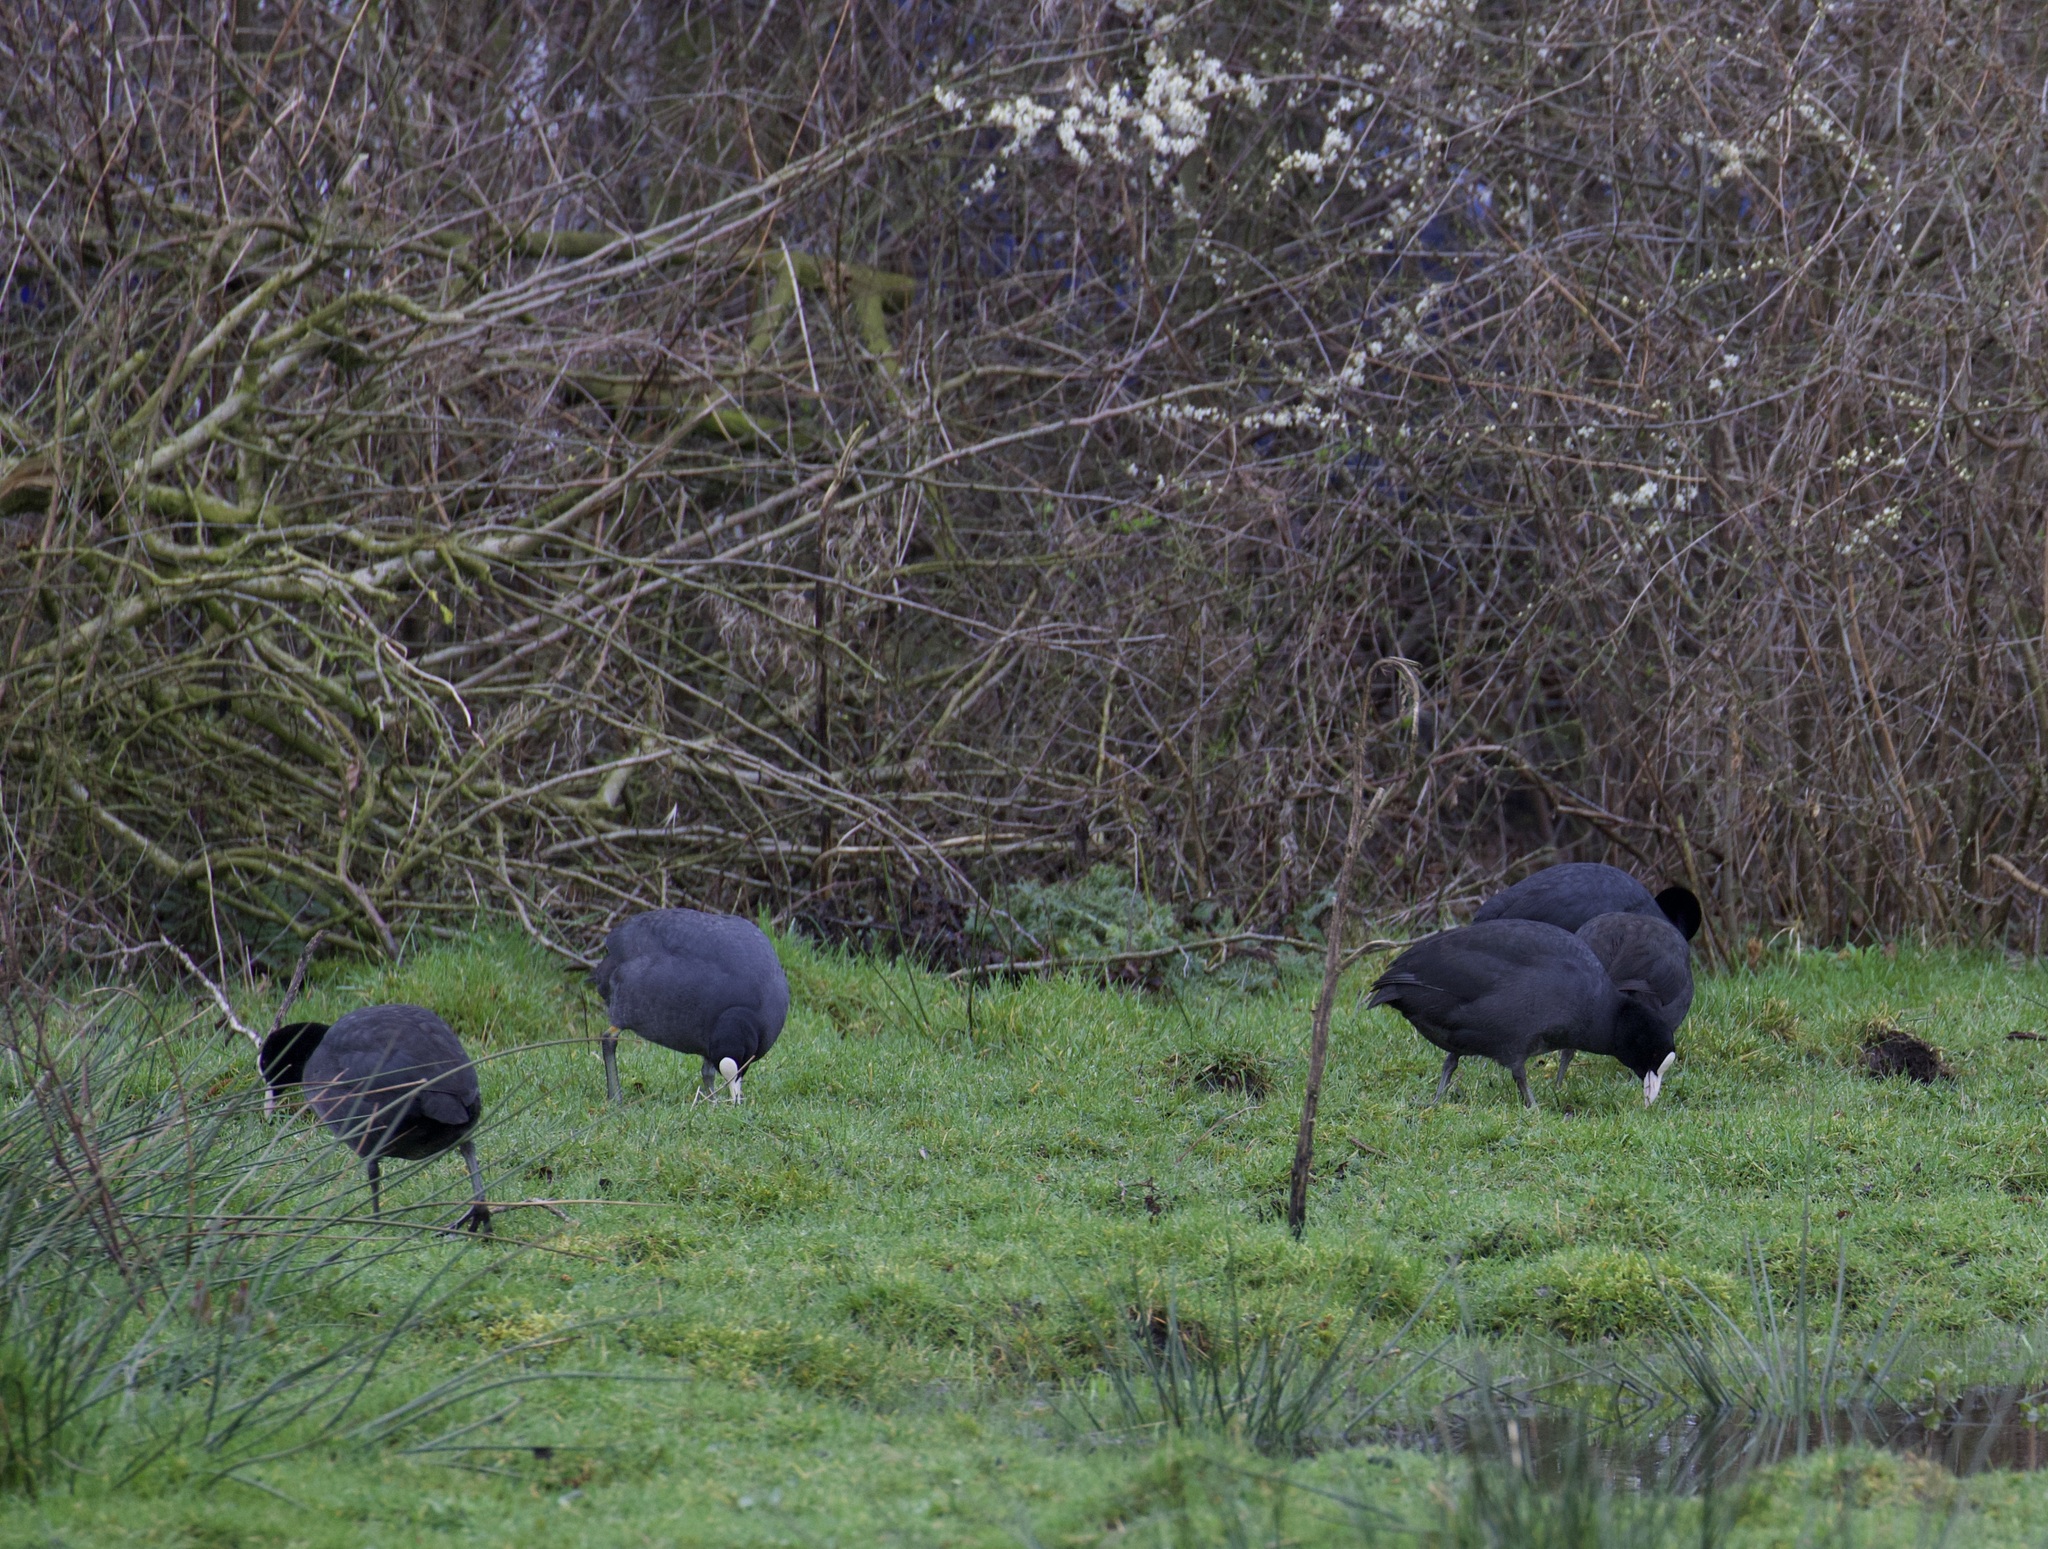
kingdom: Animalia
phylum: Chordata
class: Aves
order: Gruiformes
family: Rallidae
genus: Fulica
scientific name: Fulica atra
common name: Eurasian coot
